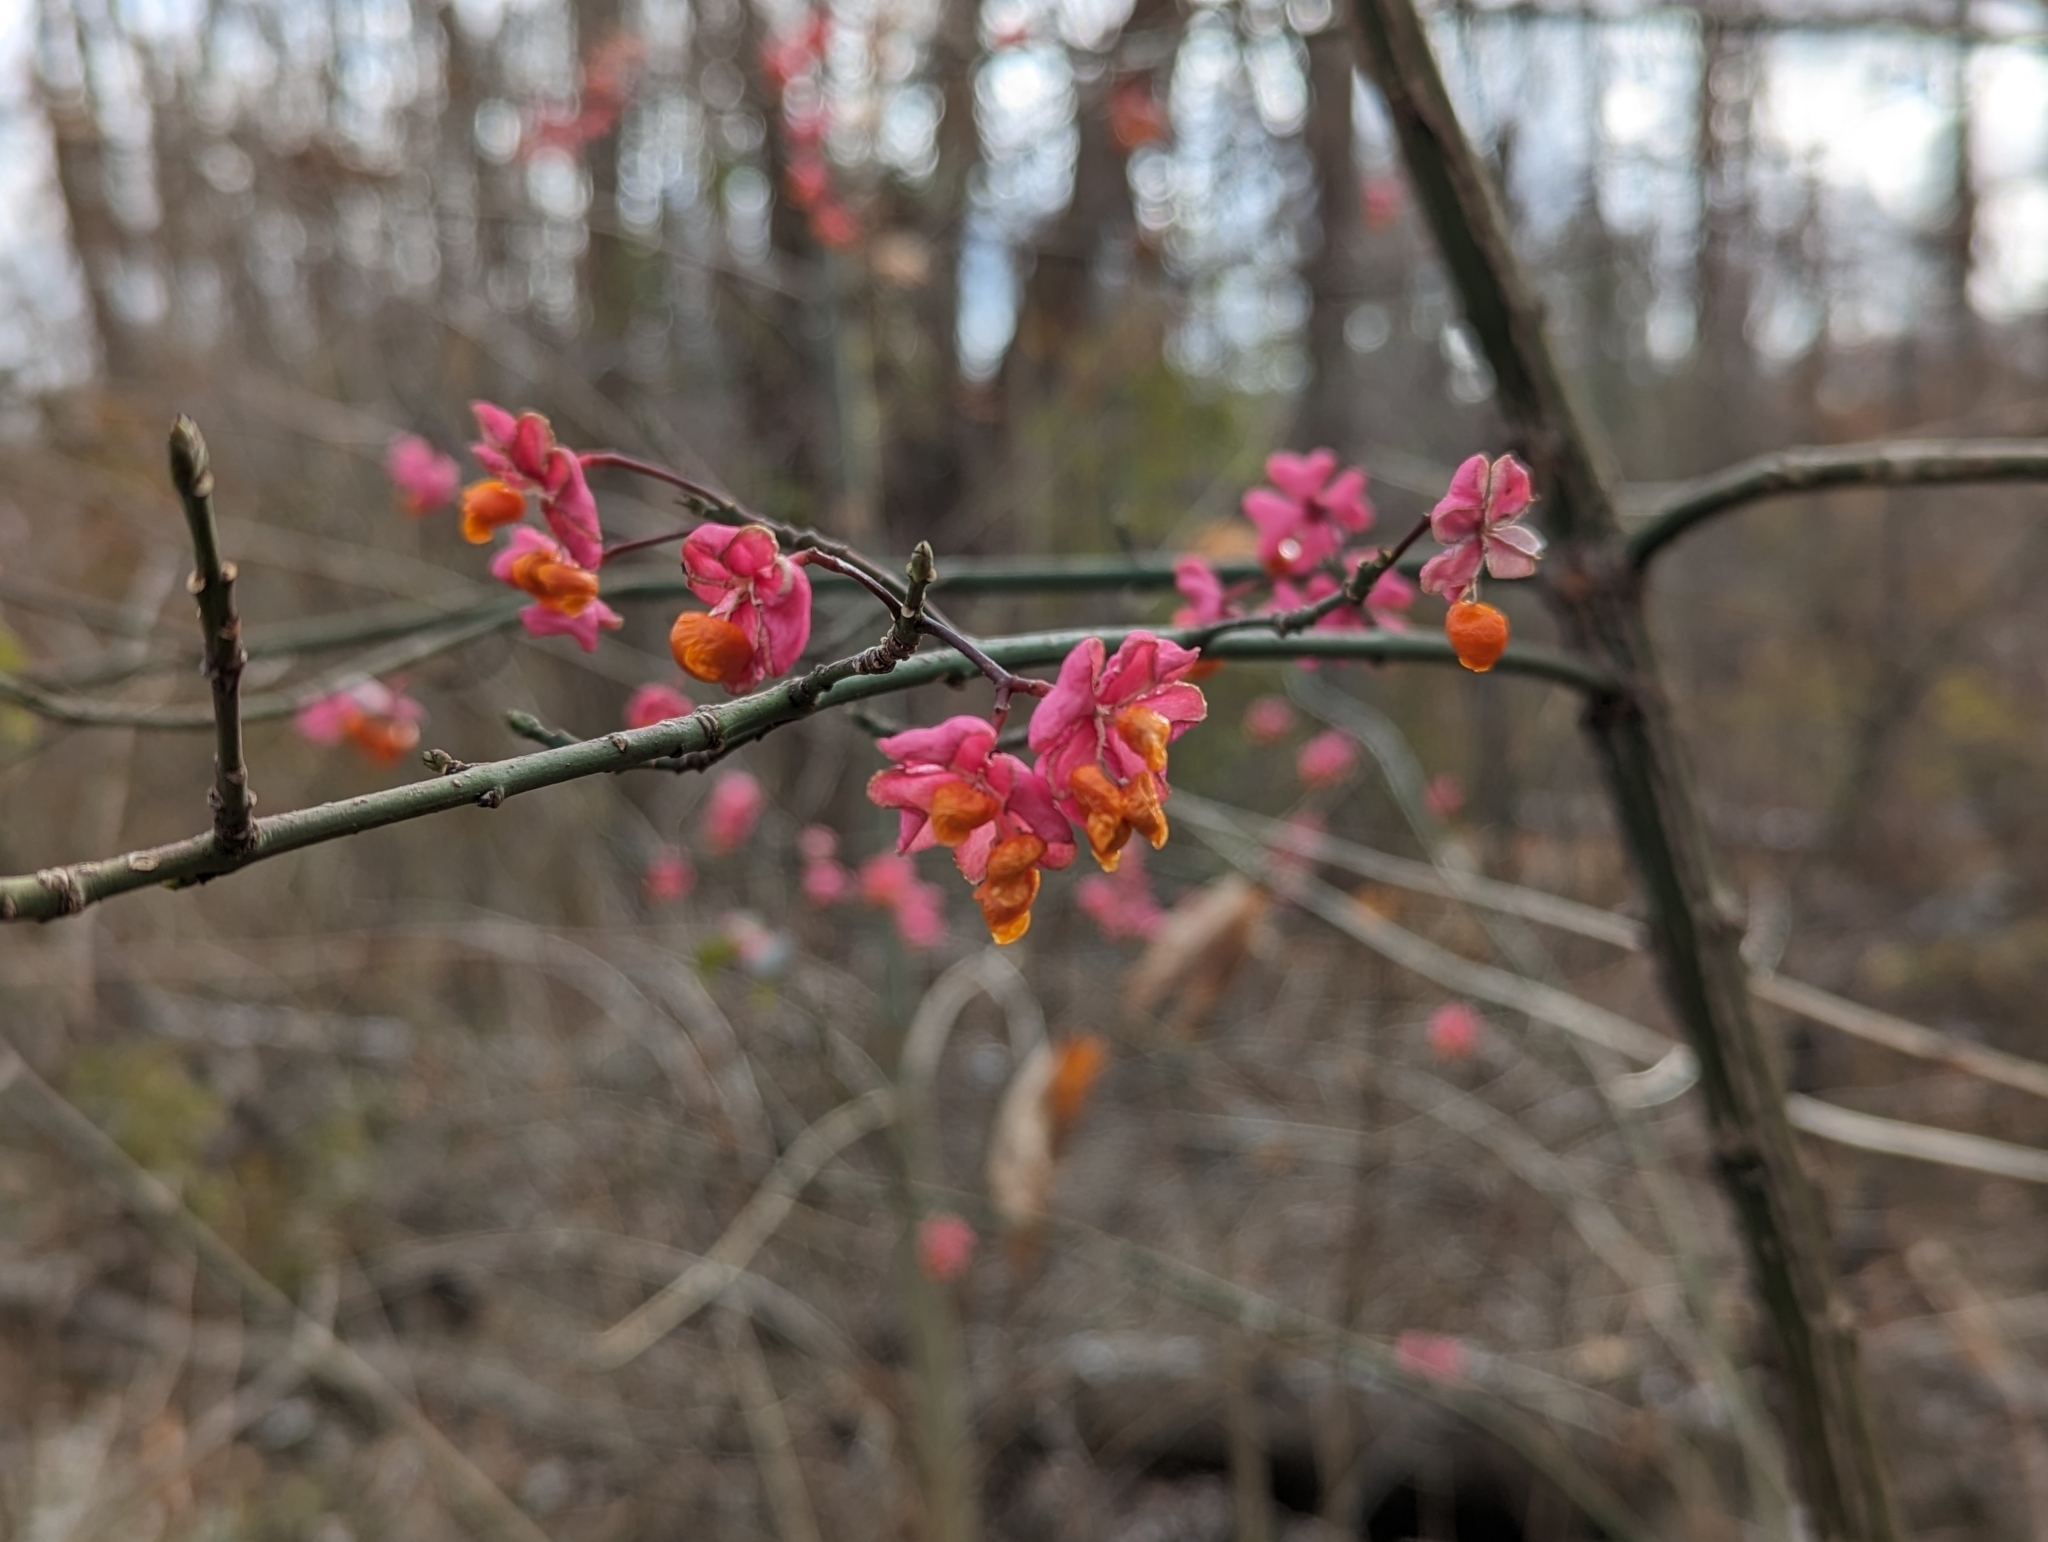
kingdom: Plantae
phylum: Tracheophyta
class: Magnoliopsida
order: Celastrales
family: Celastraceae
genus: Euonymus
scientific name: Euonymus europaeus
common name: Spindle
